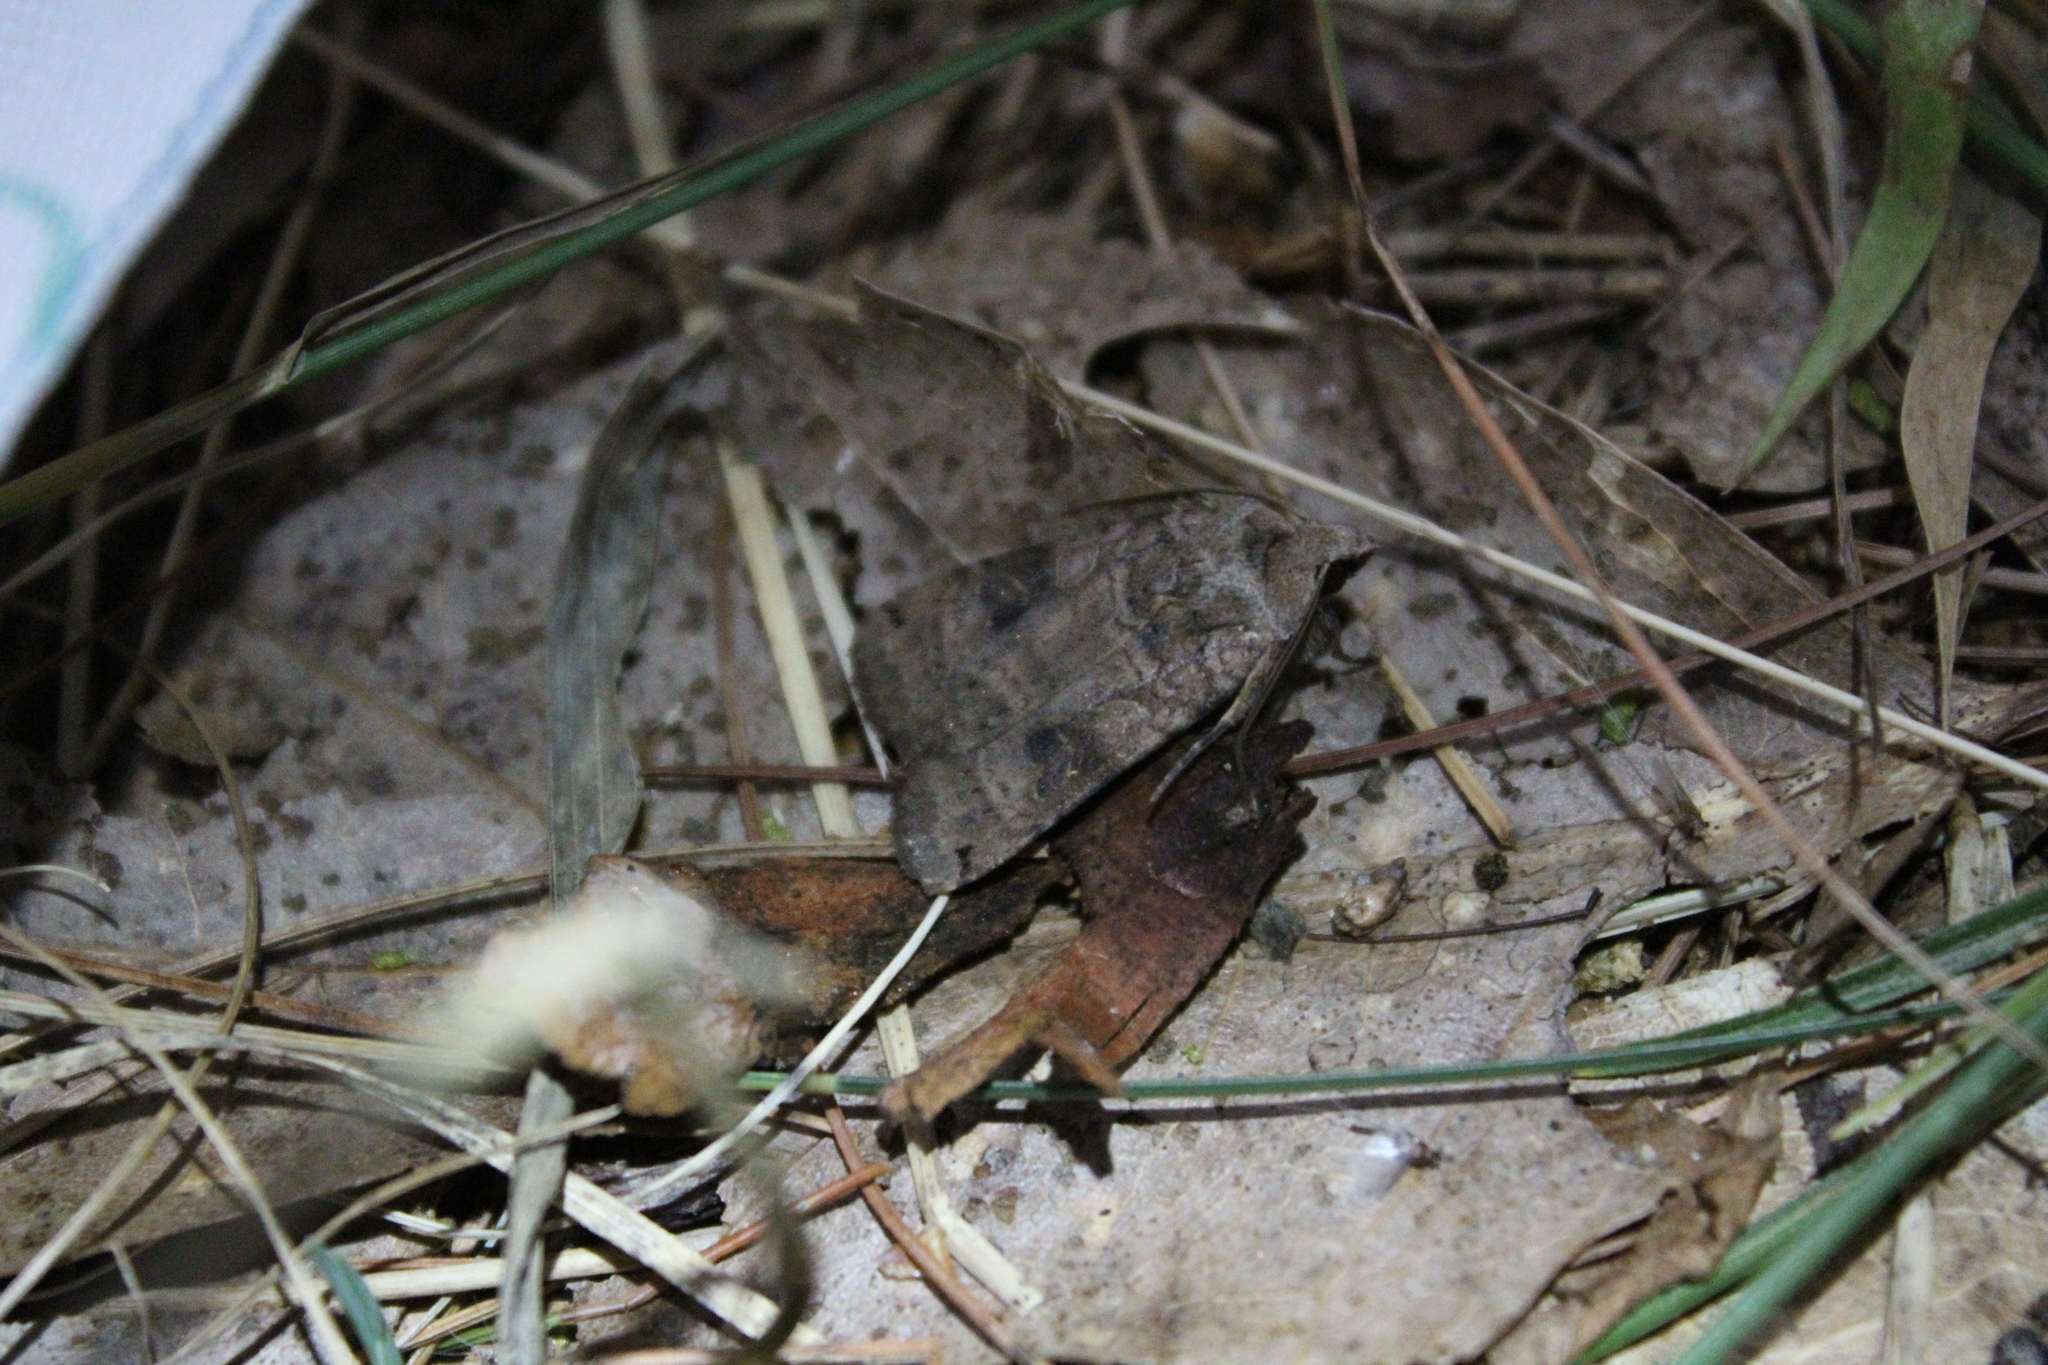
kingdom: Animalia
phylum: Arthropoda
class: Insecta
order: Lepidoptera
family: Noctuidae
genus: Xestia
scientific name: Xestia smithii
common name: Smith's dart
